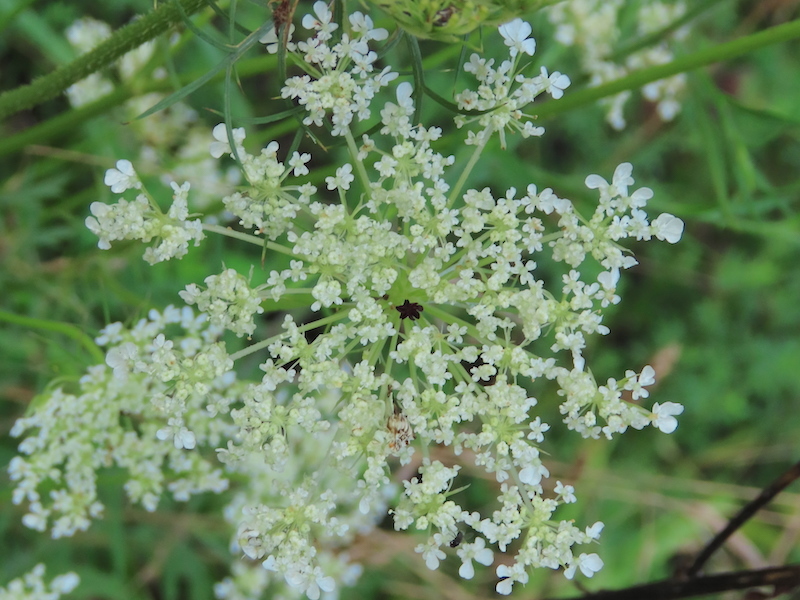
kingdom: Plantae
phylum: Tracheophyta
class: Magnoliopsida
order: Apiales
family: Apiaceae
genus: Daucus
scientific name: Daucus carota
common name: Wild carrot
